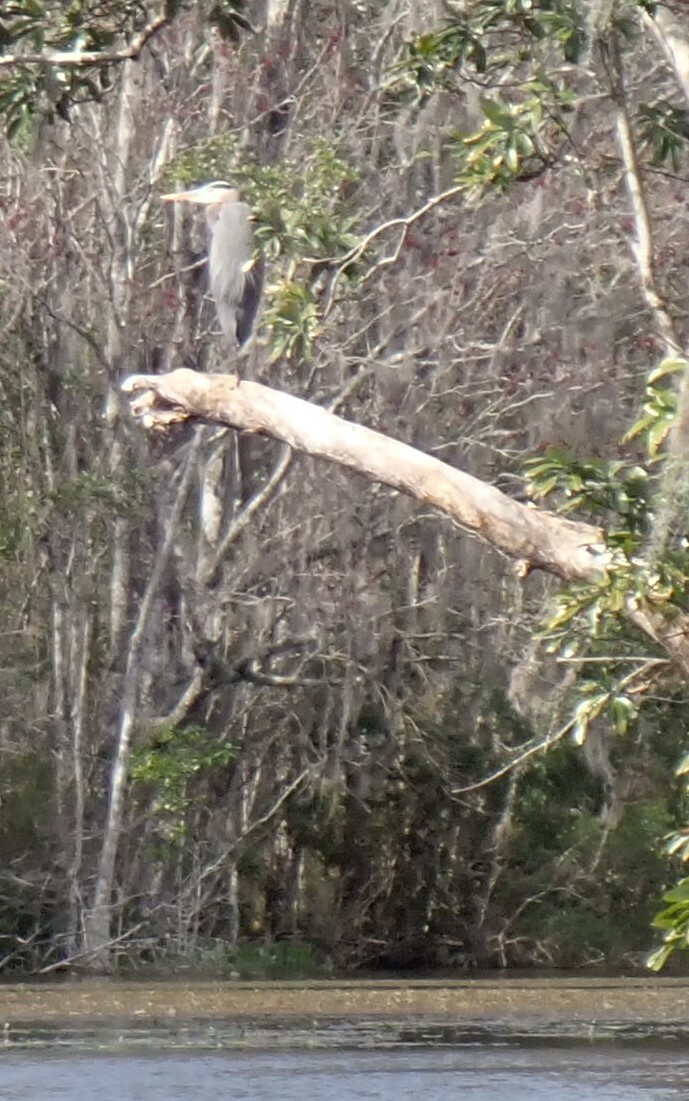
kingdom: Animalia
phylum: Chordata
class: Aves
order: Pelecaniformes
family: Ardeidae
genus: Ardea
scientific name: Ardea herodias
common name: Great blue heron
